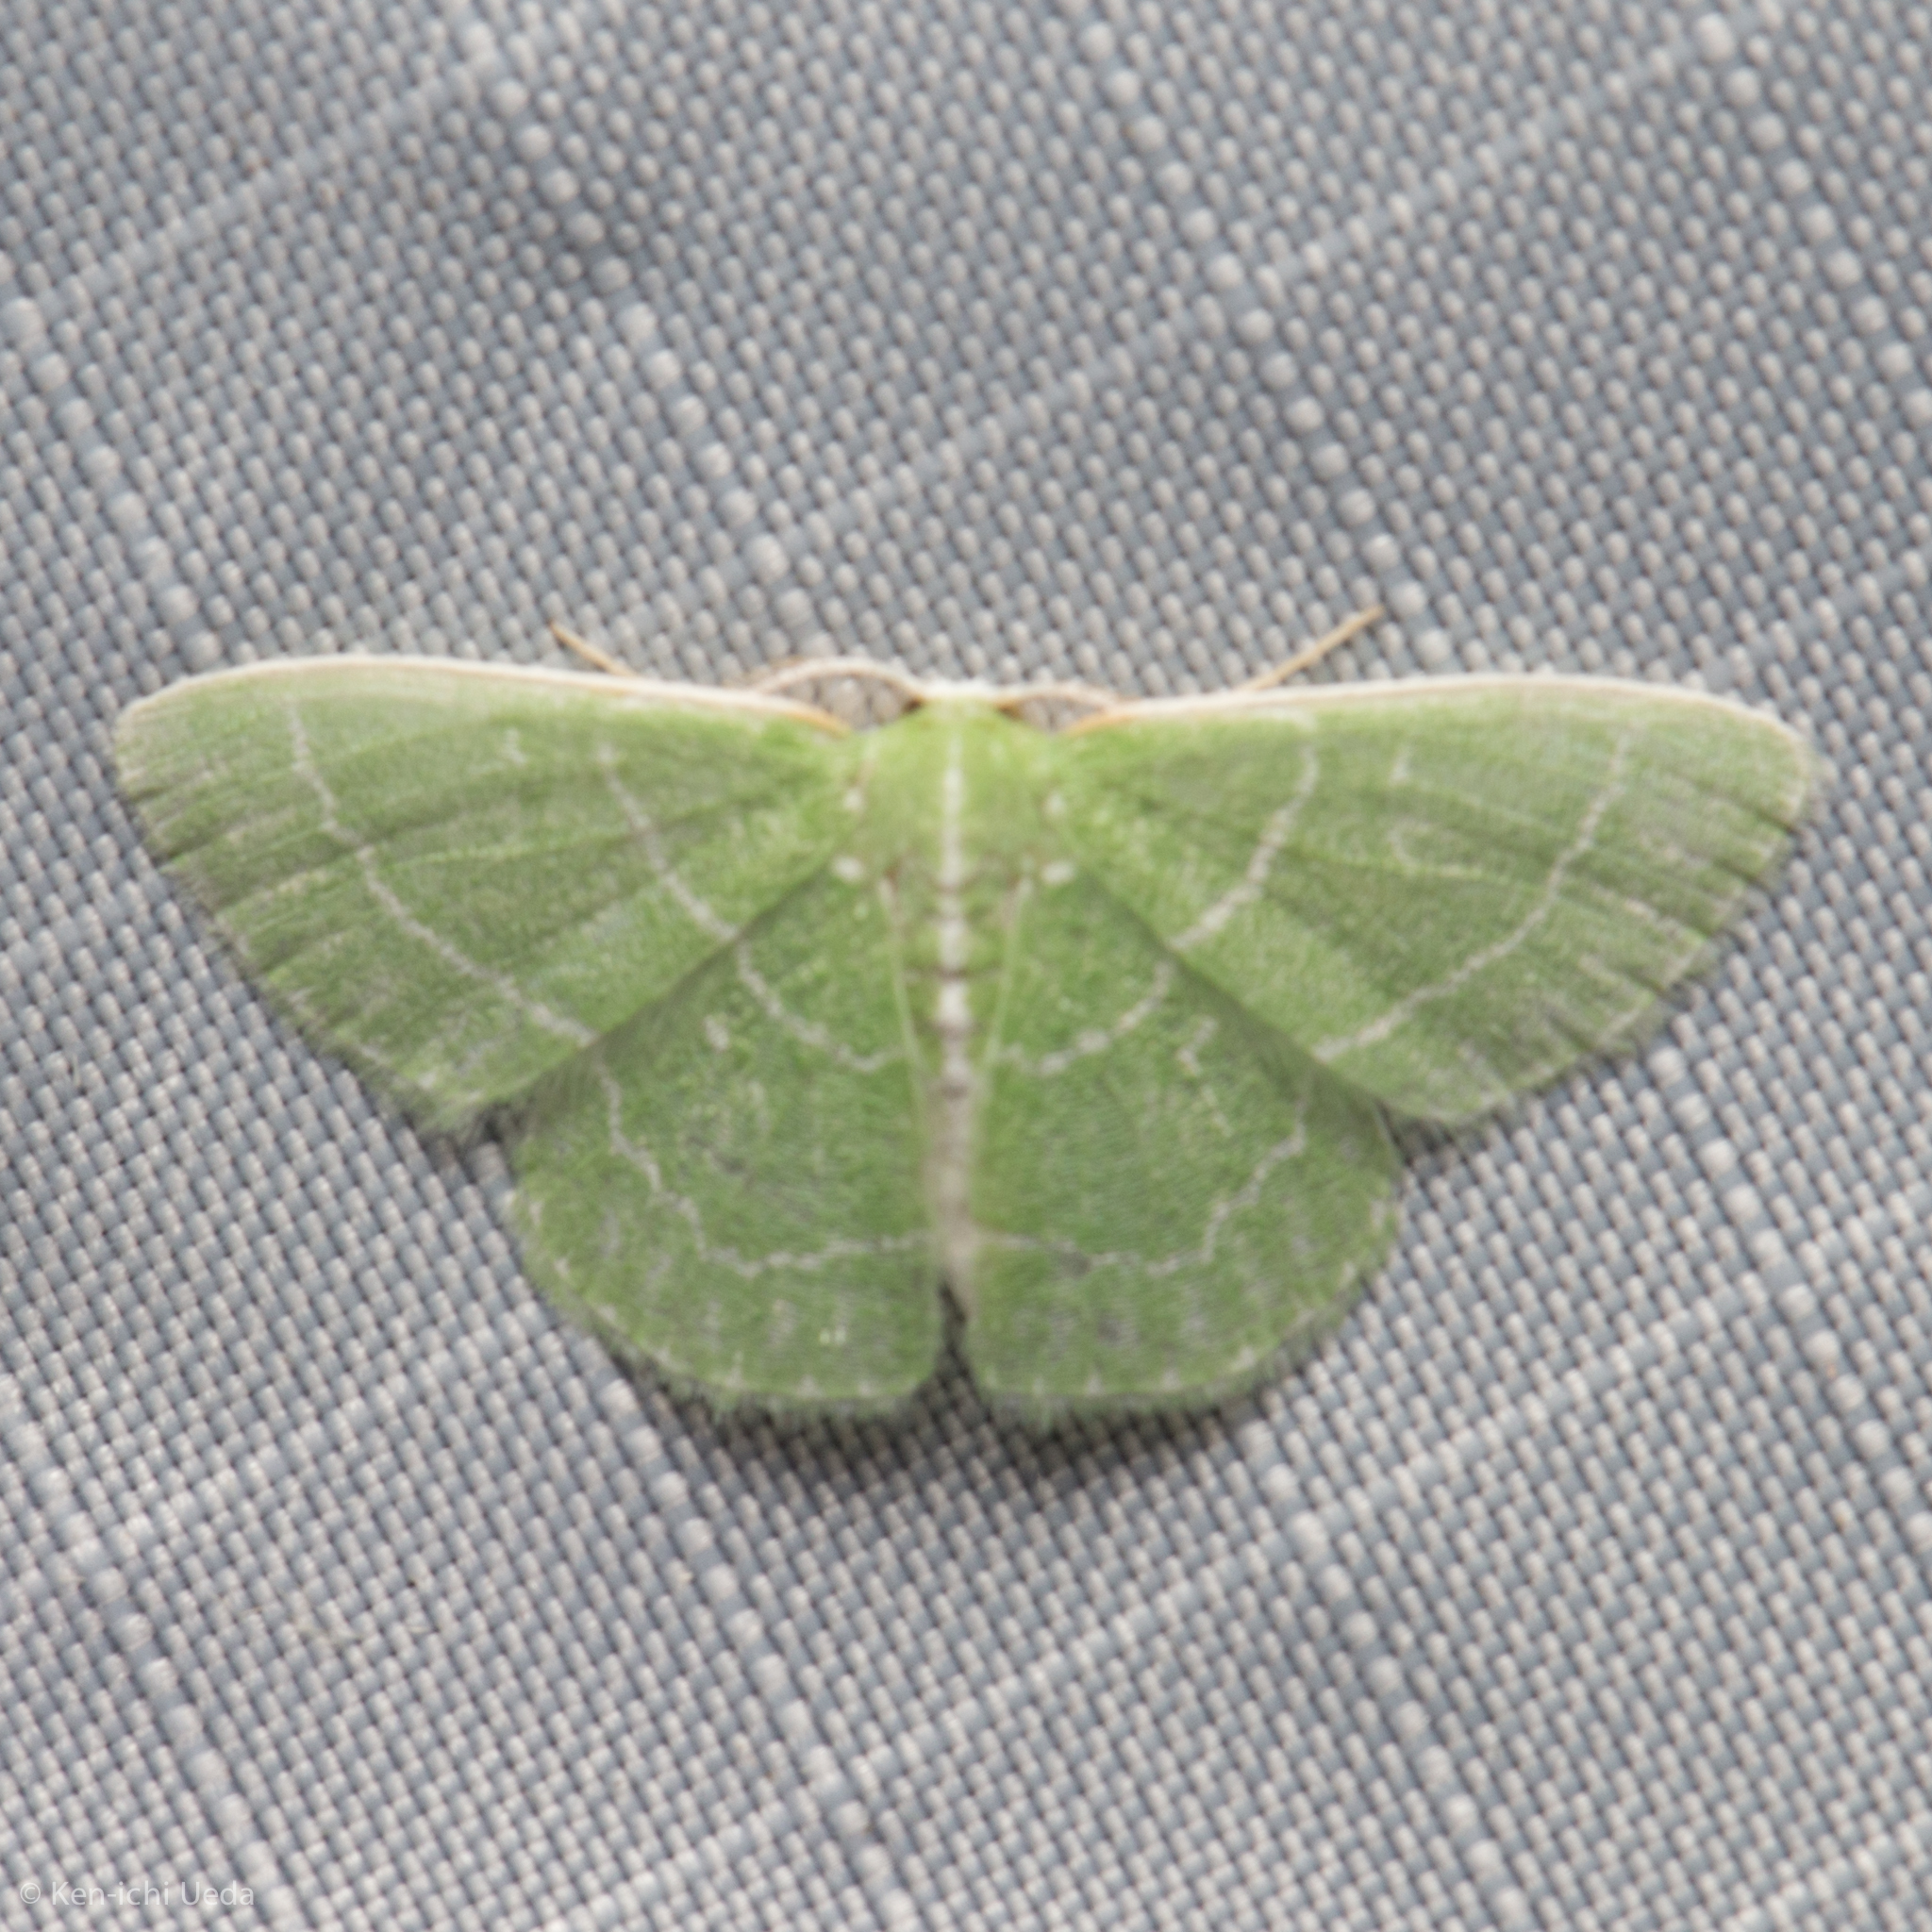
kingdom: Animalia
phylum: Arthropoda
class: Insecta
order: Lepidoptera
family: Geometridae
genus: Synchlora
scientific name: Synchlora aerata
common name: Wavy-lined emerald
